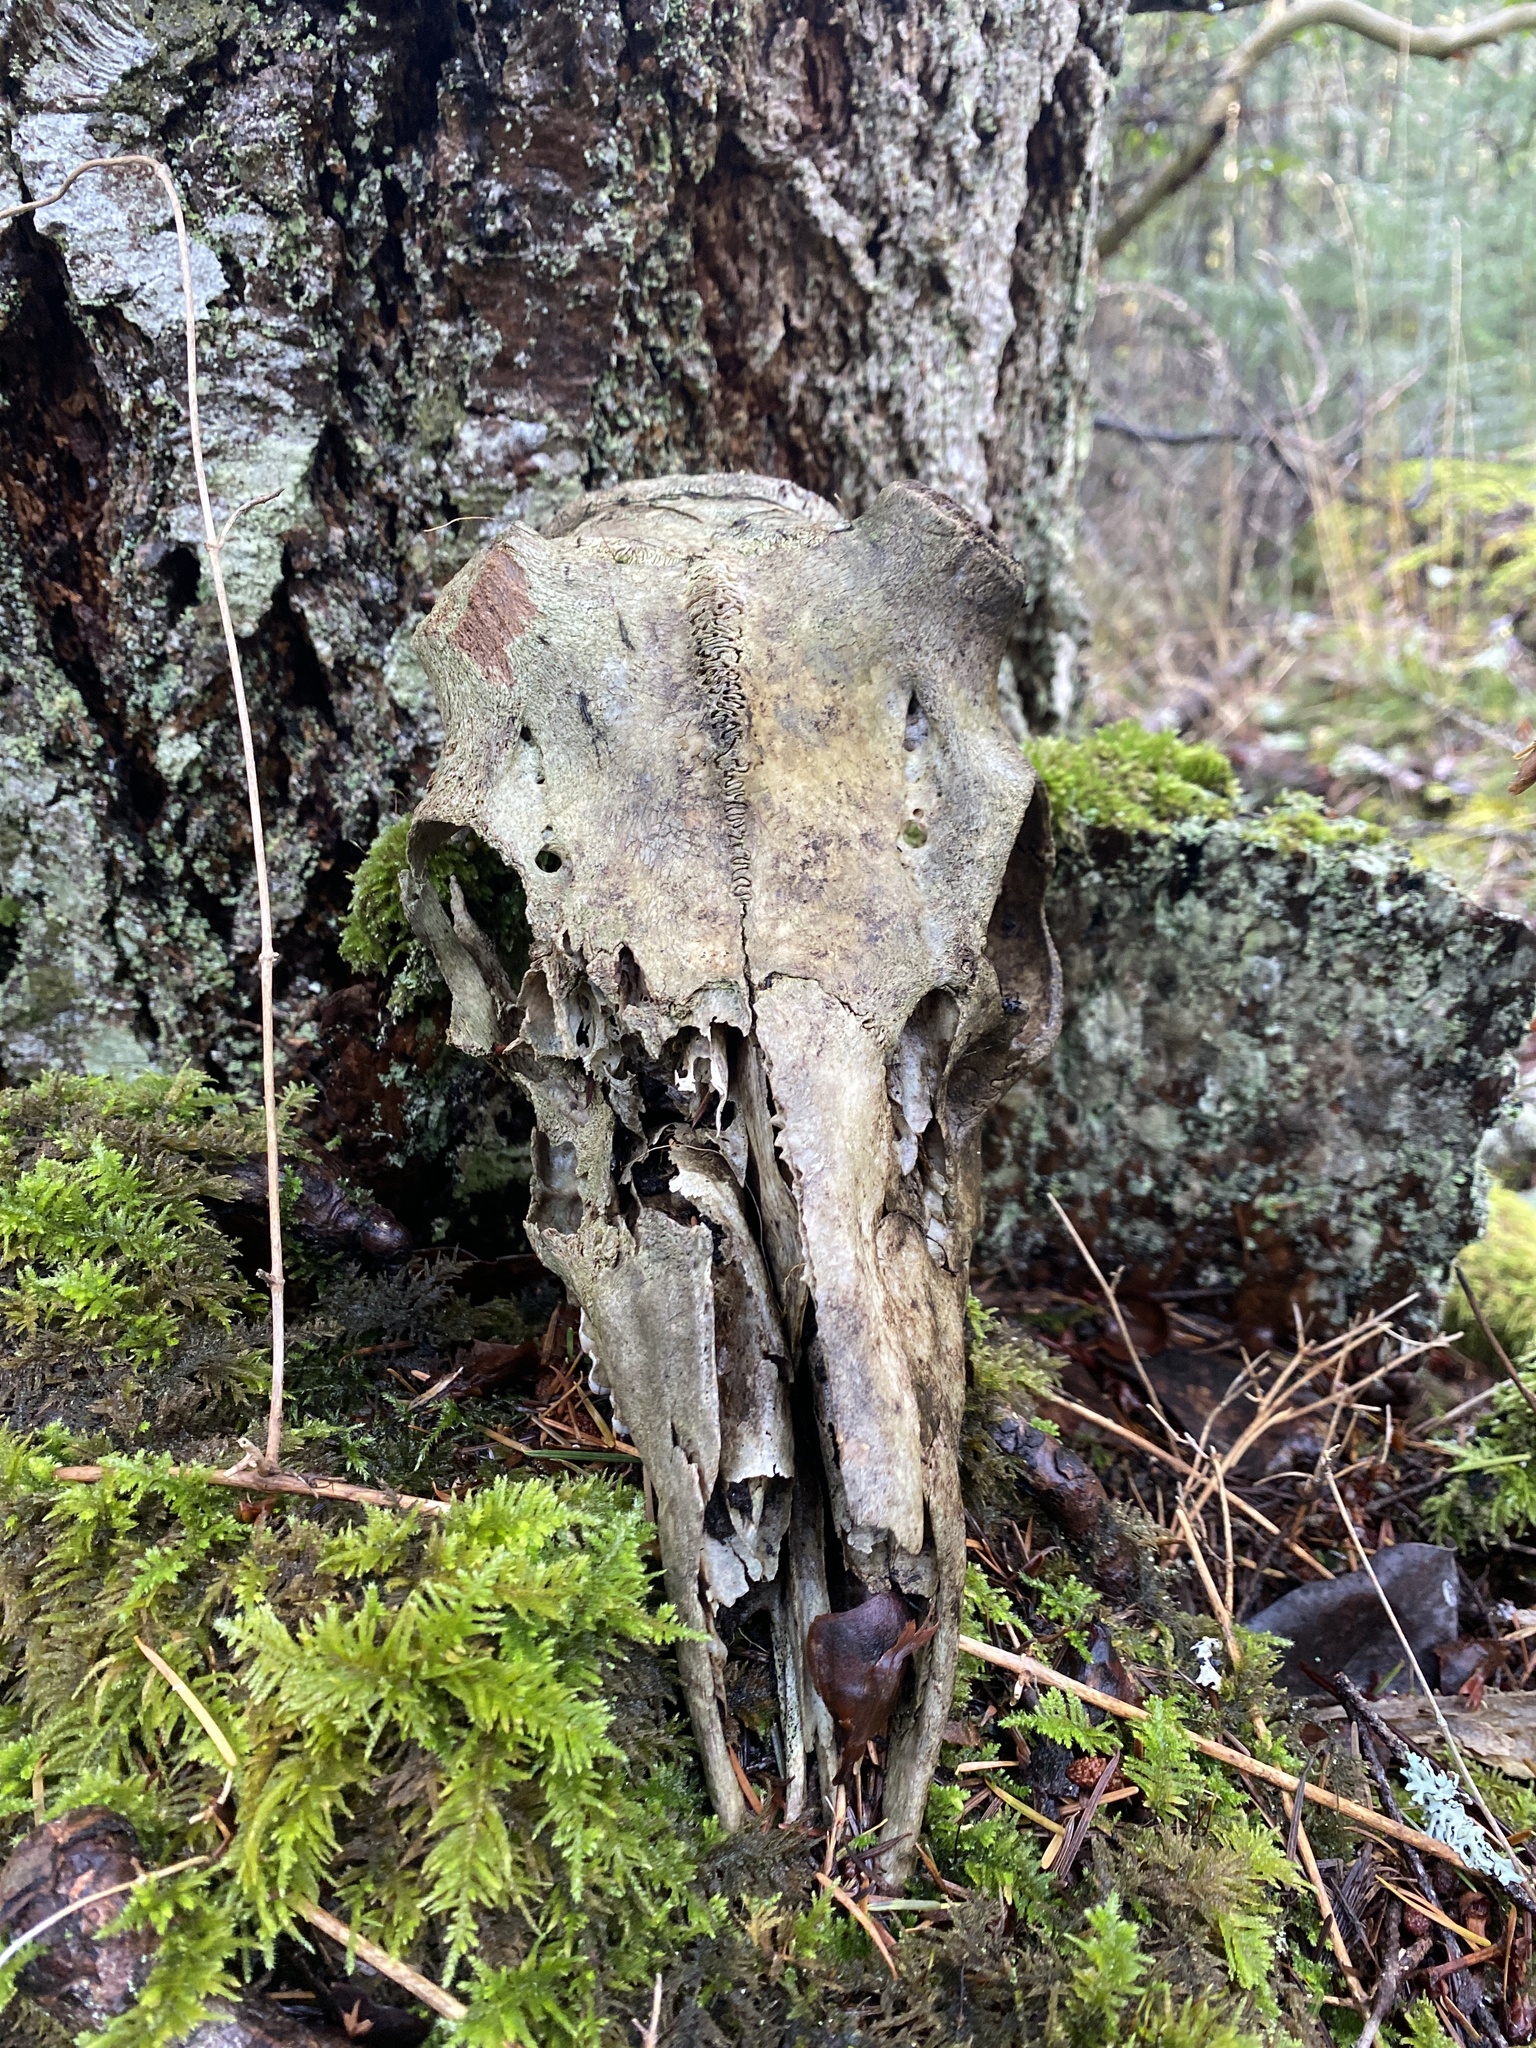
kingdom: Animalia
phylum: Chordata
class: Mammalia
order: Artiodactyla
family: Cervidae
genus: Odocoileus
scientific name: Odocoileus hemionus
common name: Mule deer
